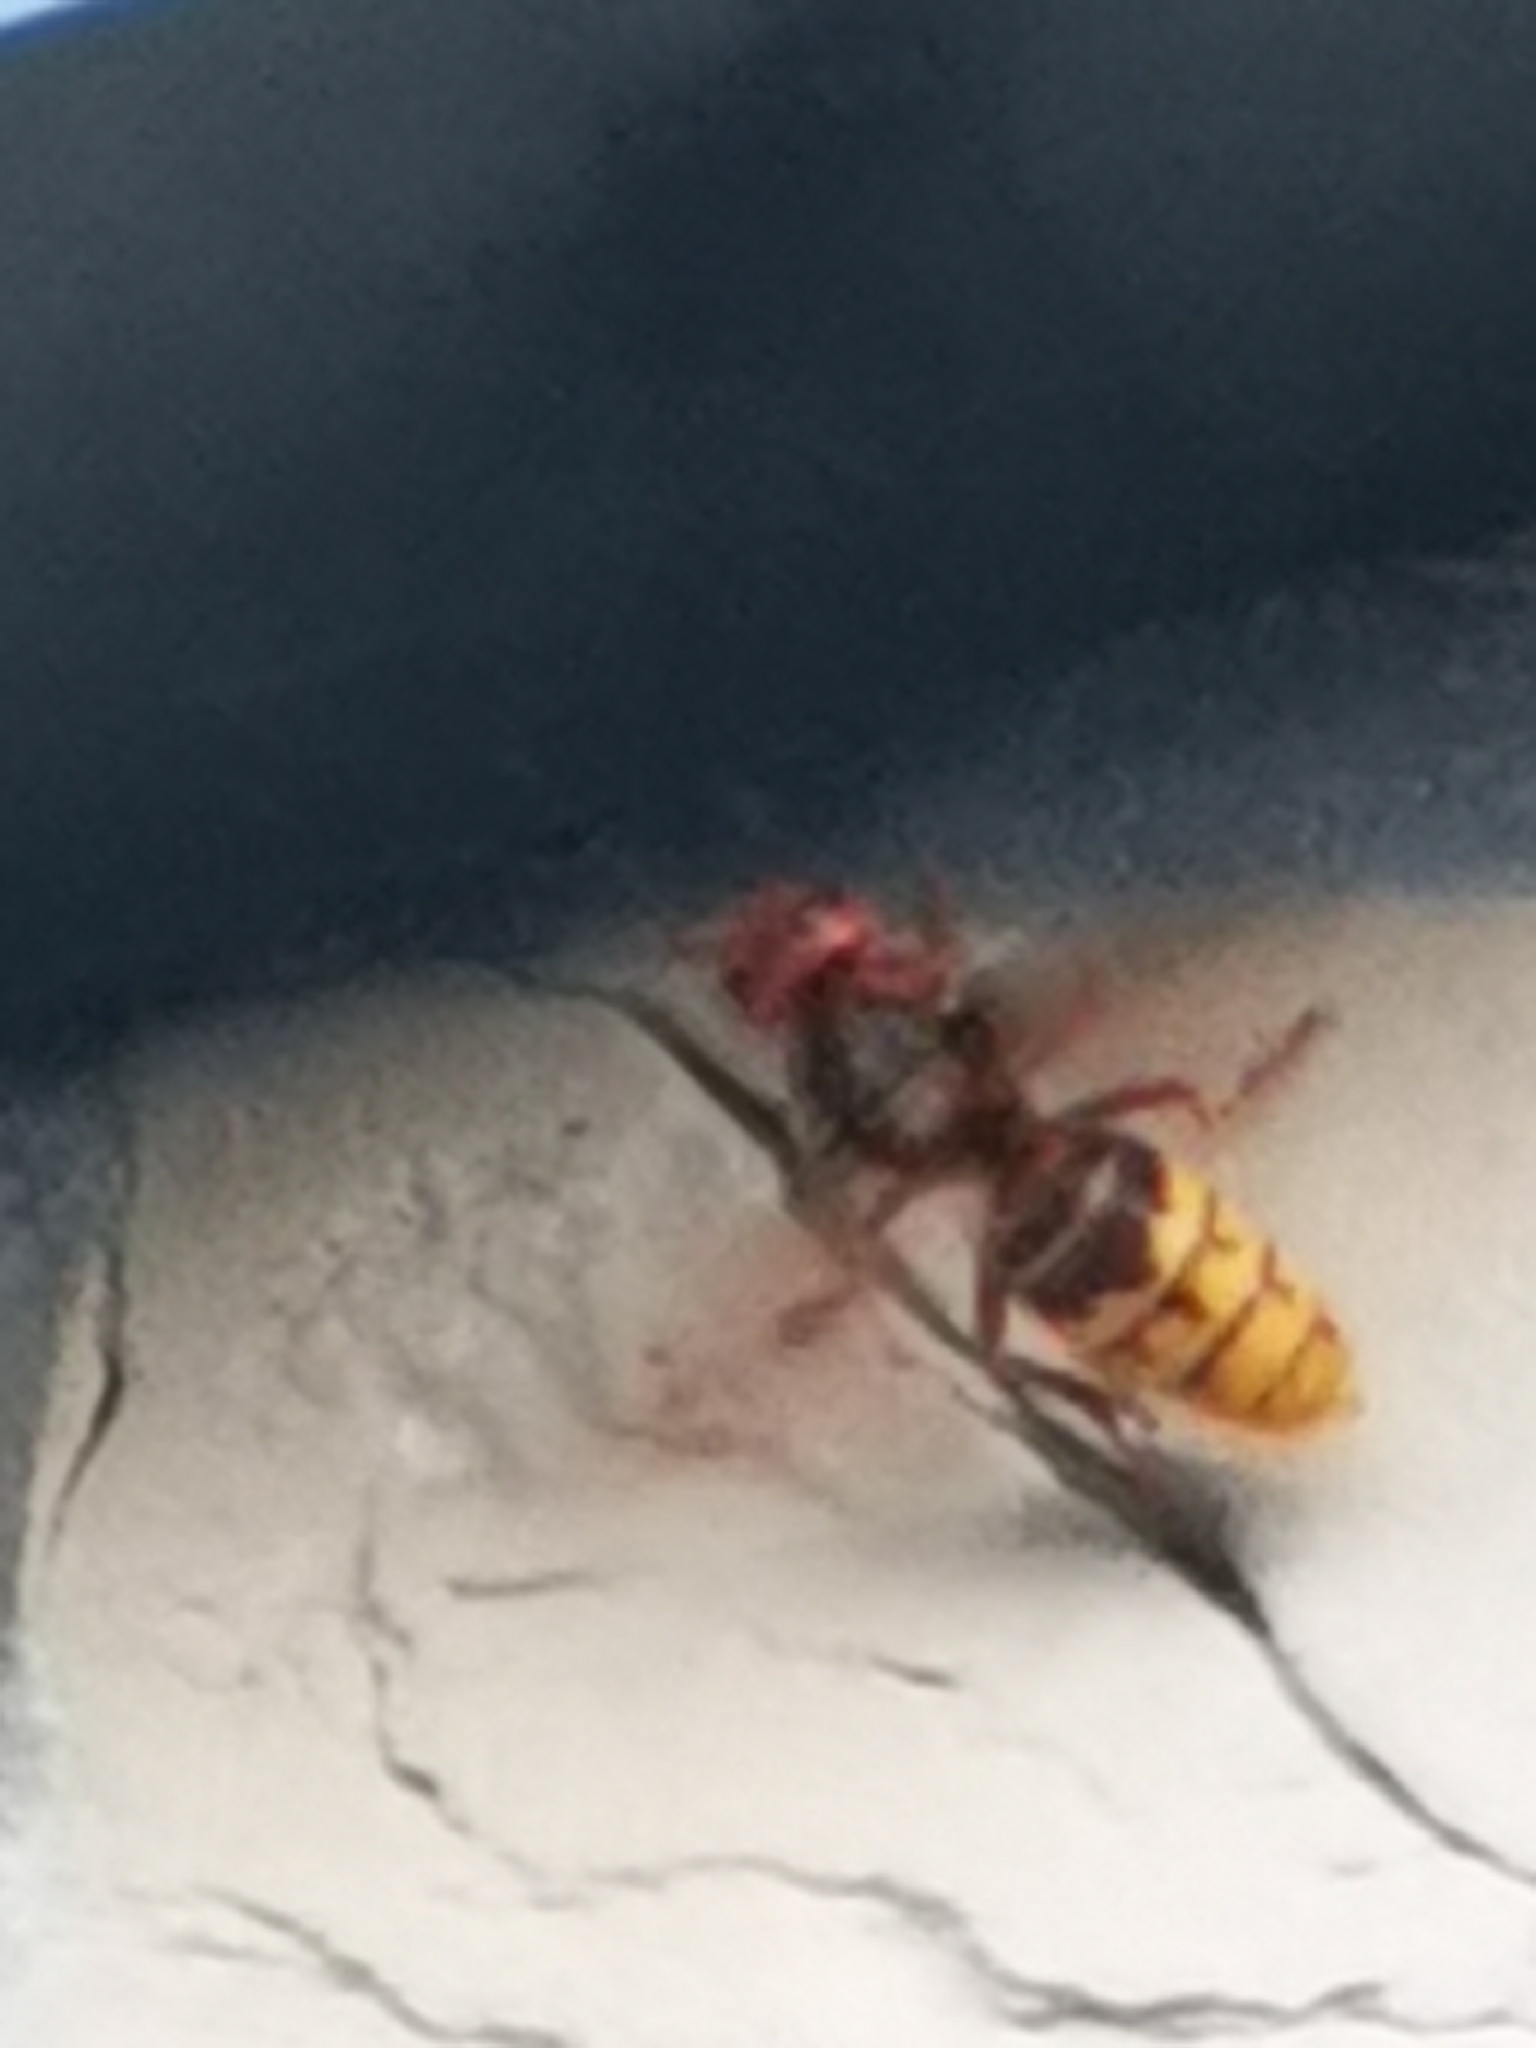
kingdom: Animalia
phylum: Arthropoda
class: Insecta
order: Hymenoptera
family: Vespidae
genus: Vespa
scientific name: Vespa crabro
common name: Hornet
